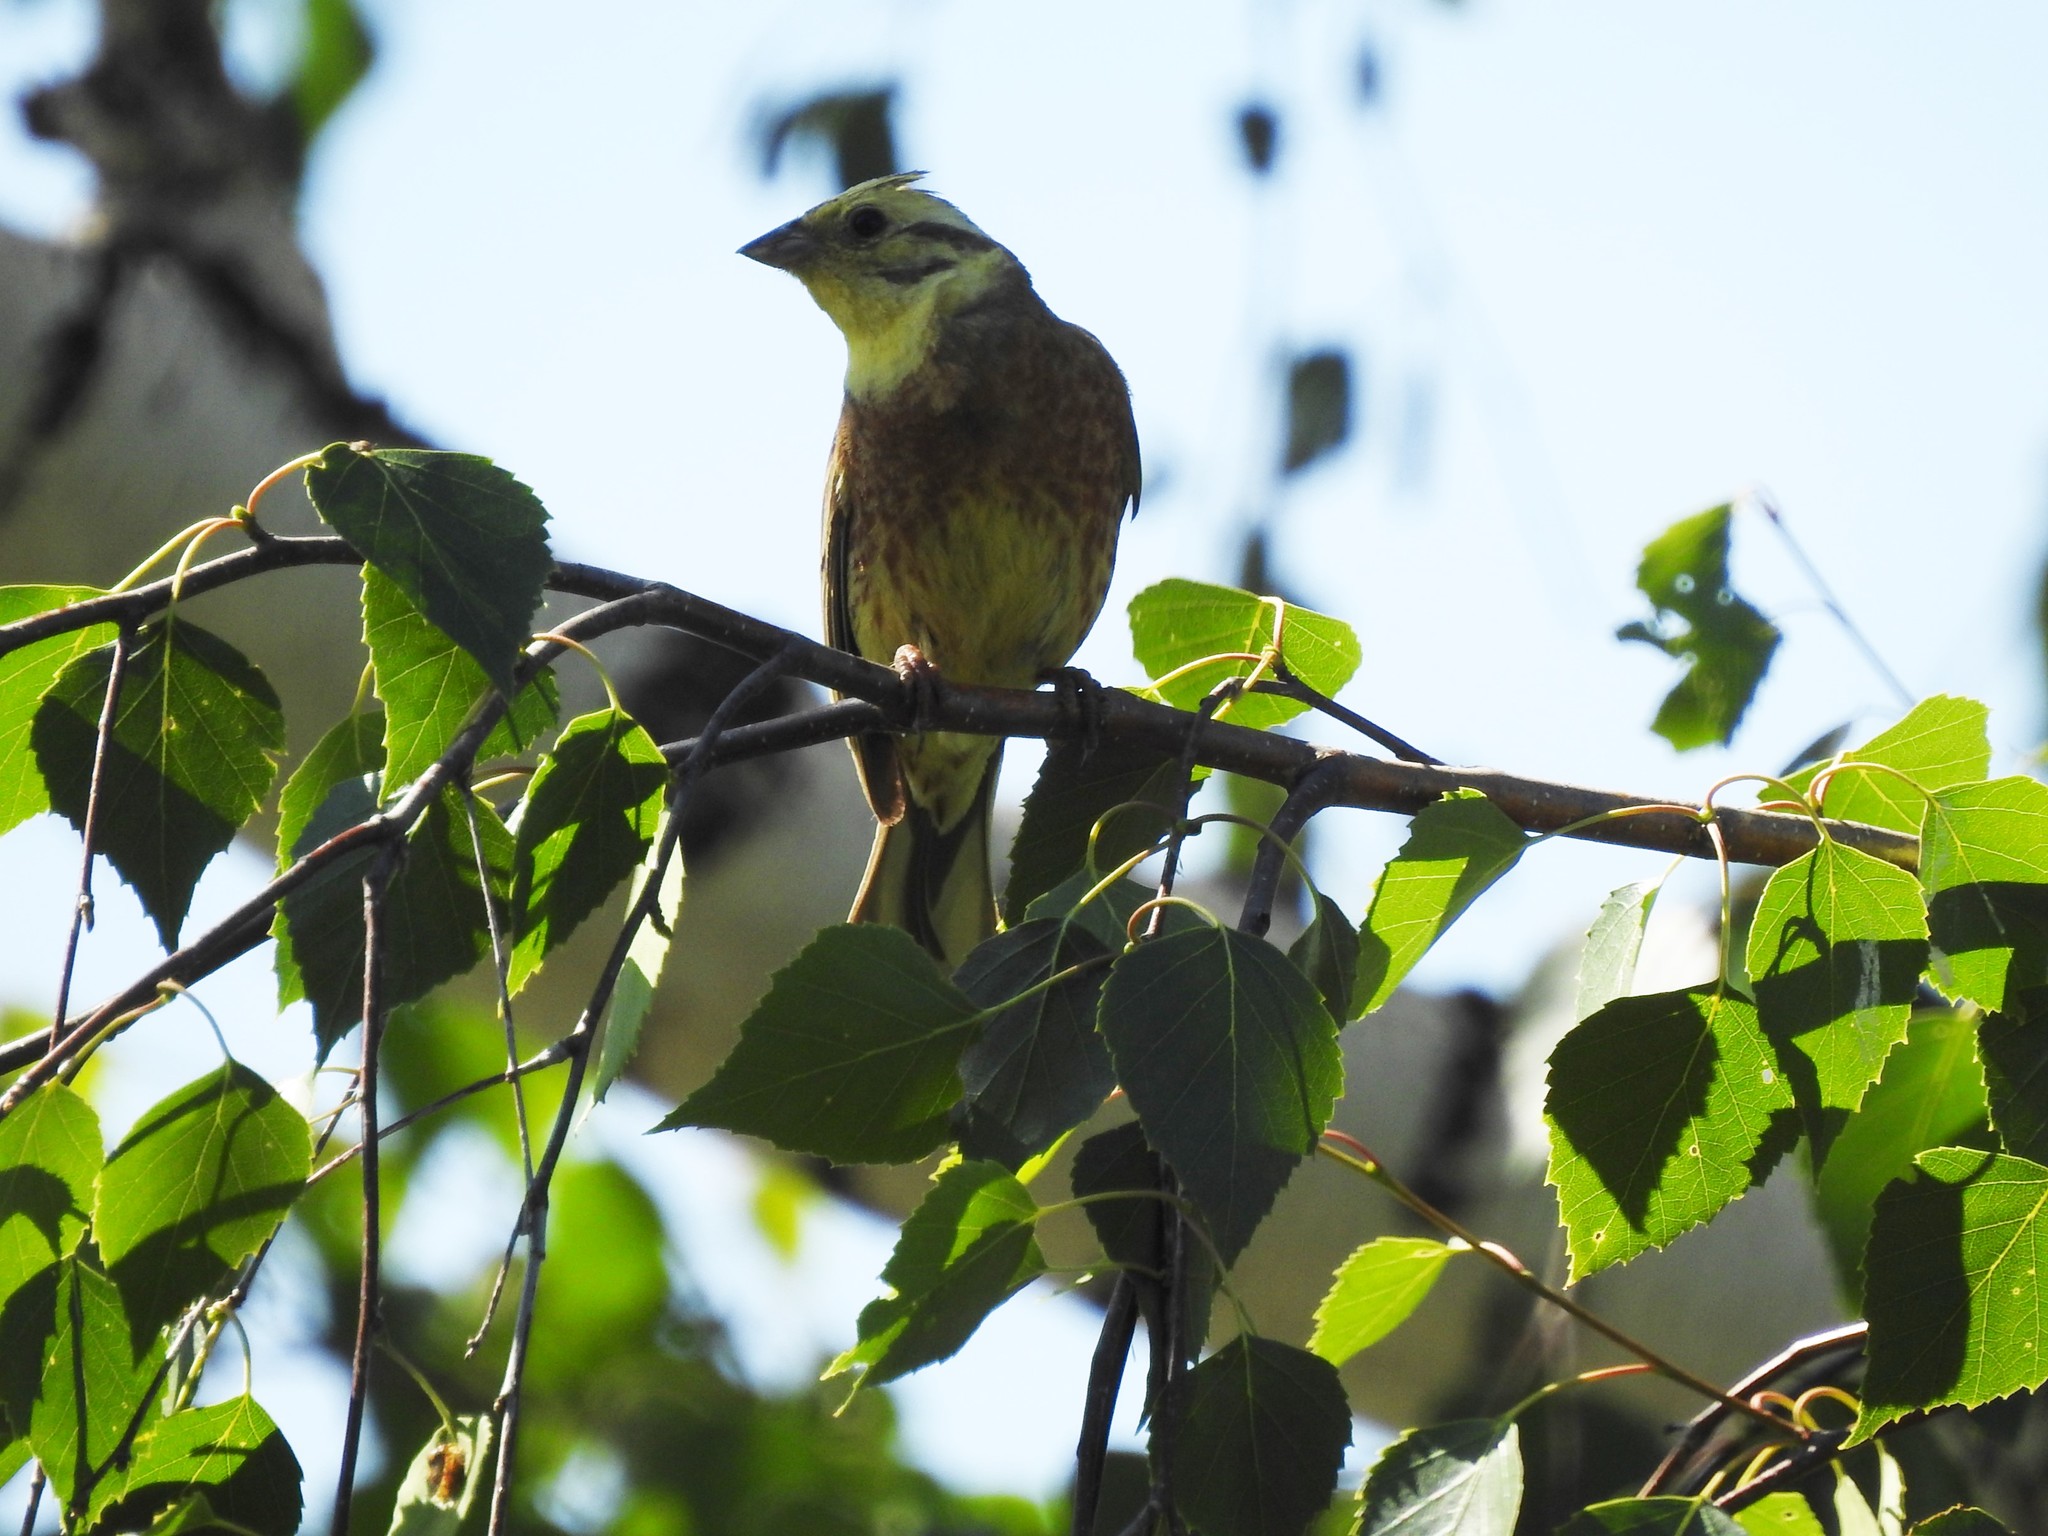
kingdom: Animalia
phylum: Chordata
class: Aves
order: Passeriformes
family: Emberizidae
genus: Emberiza
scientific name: Emberiza citrinella
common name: Yellowhammer
